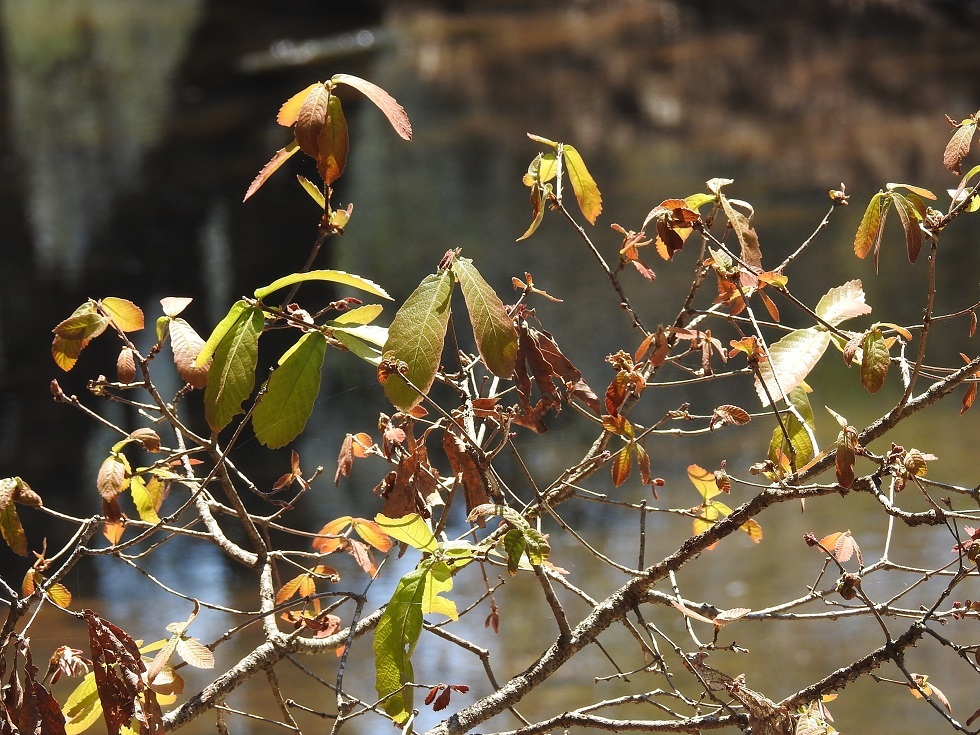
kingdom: Plantae
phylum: Tracheophyta
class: Magnoliopsida
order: Fagales
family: Fagaceae
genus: Quercus
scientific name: Quercus segoviensis
